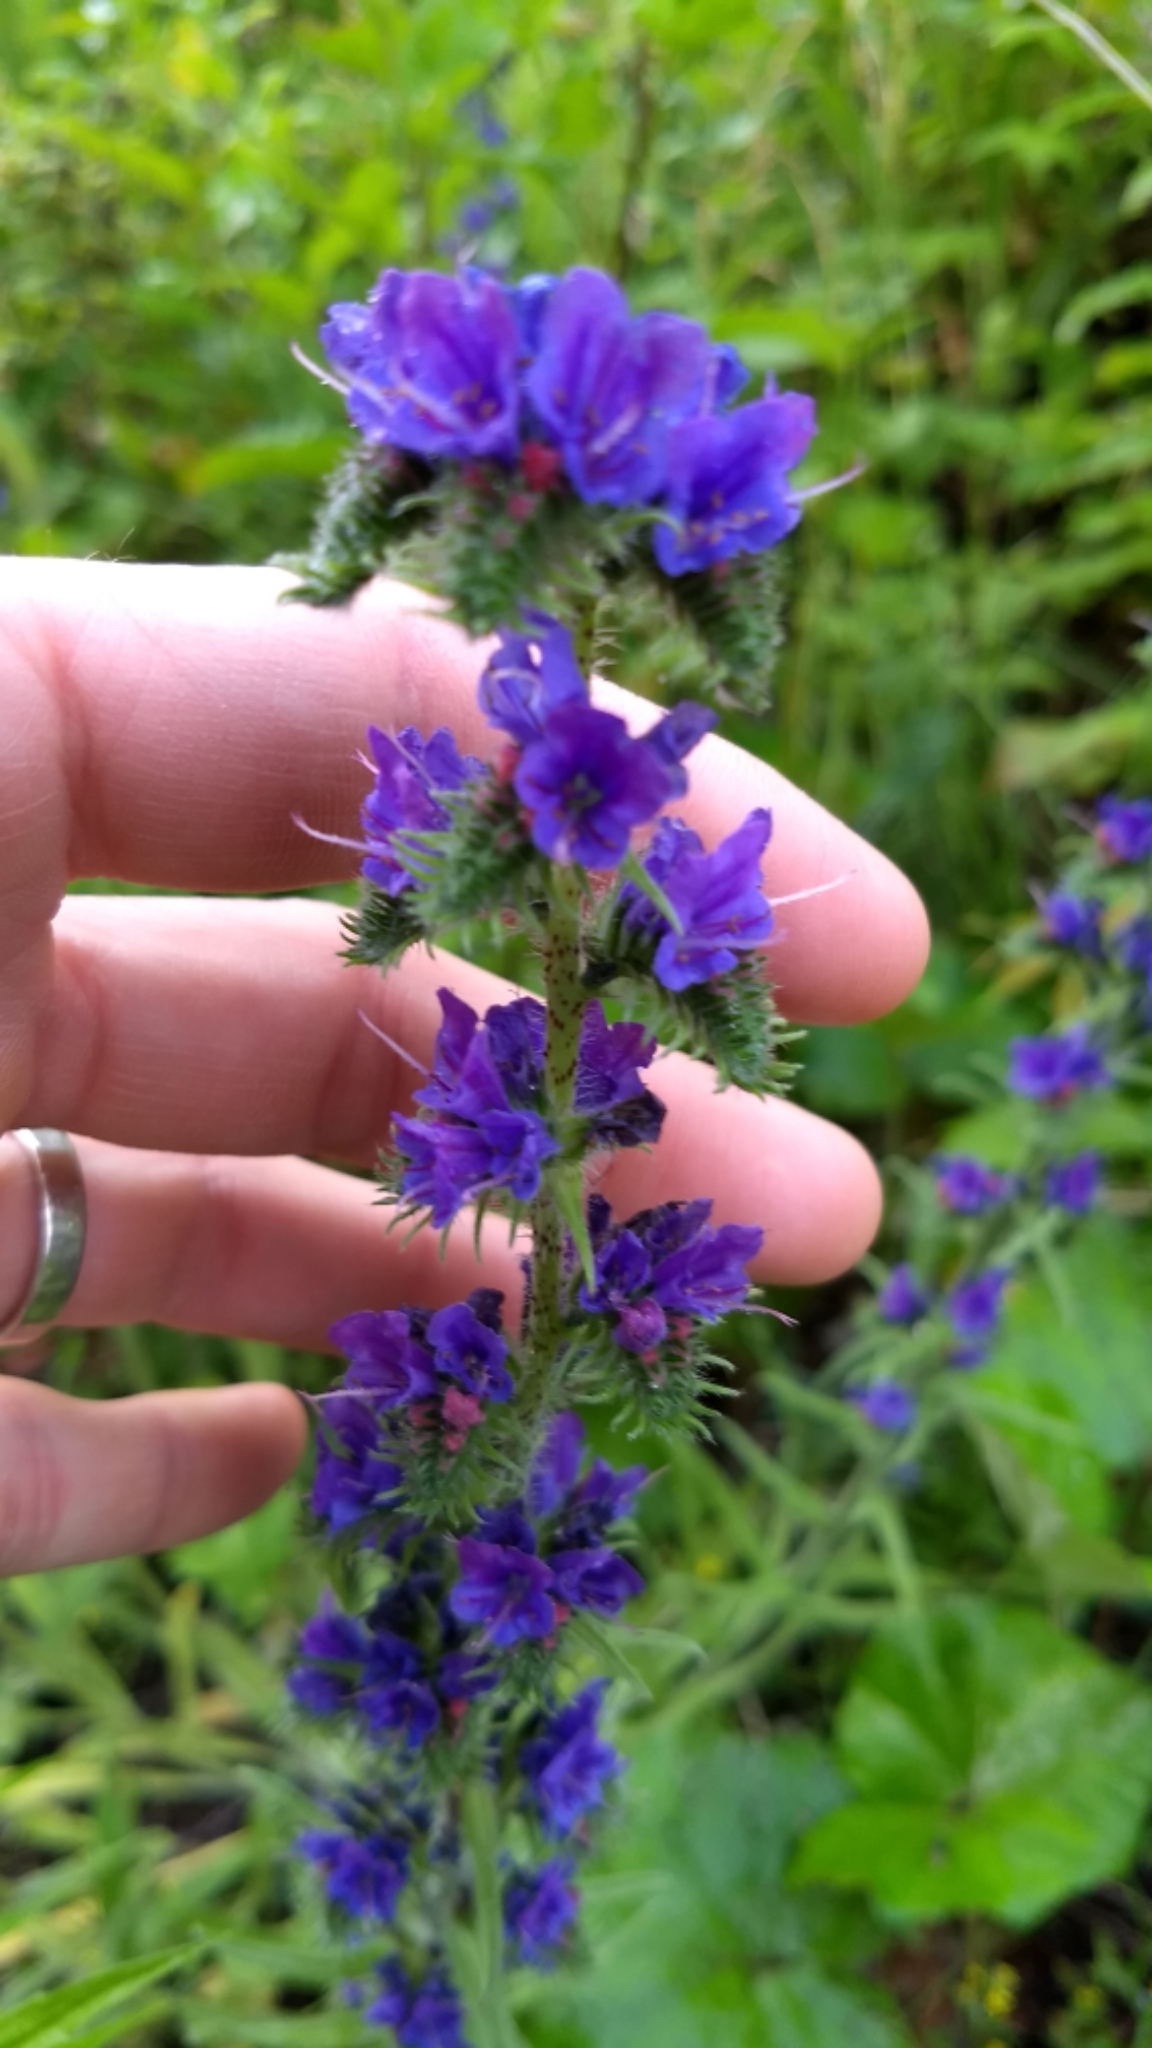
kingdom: Plantae
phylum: Tracheophyta
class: Magnoliopsida
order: Boraginales
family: Boraginaceae
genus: Echium
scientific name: Echium vulgare
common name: Common viper's bugloss
